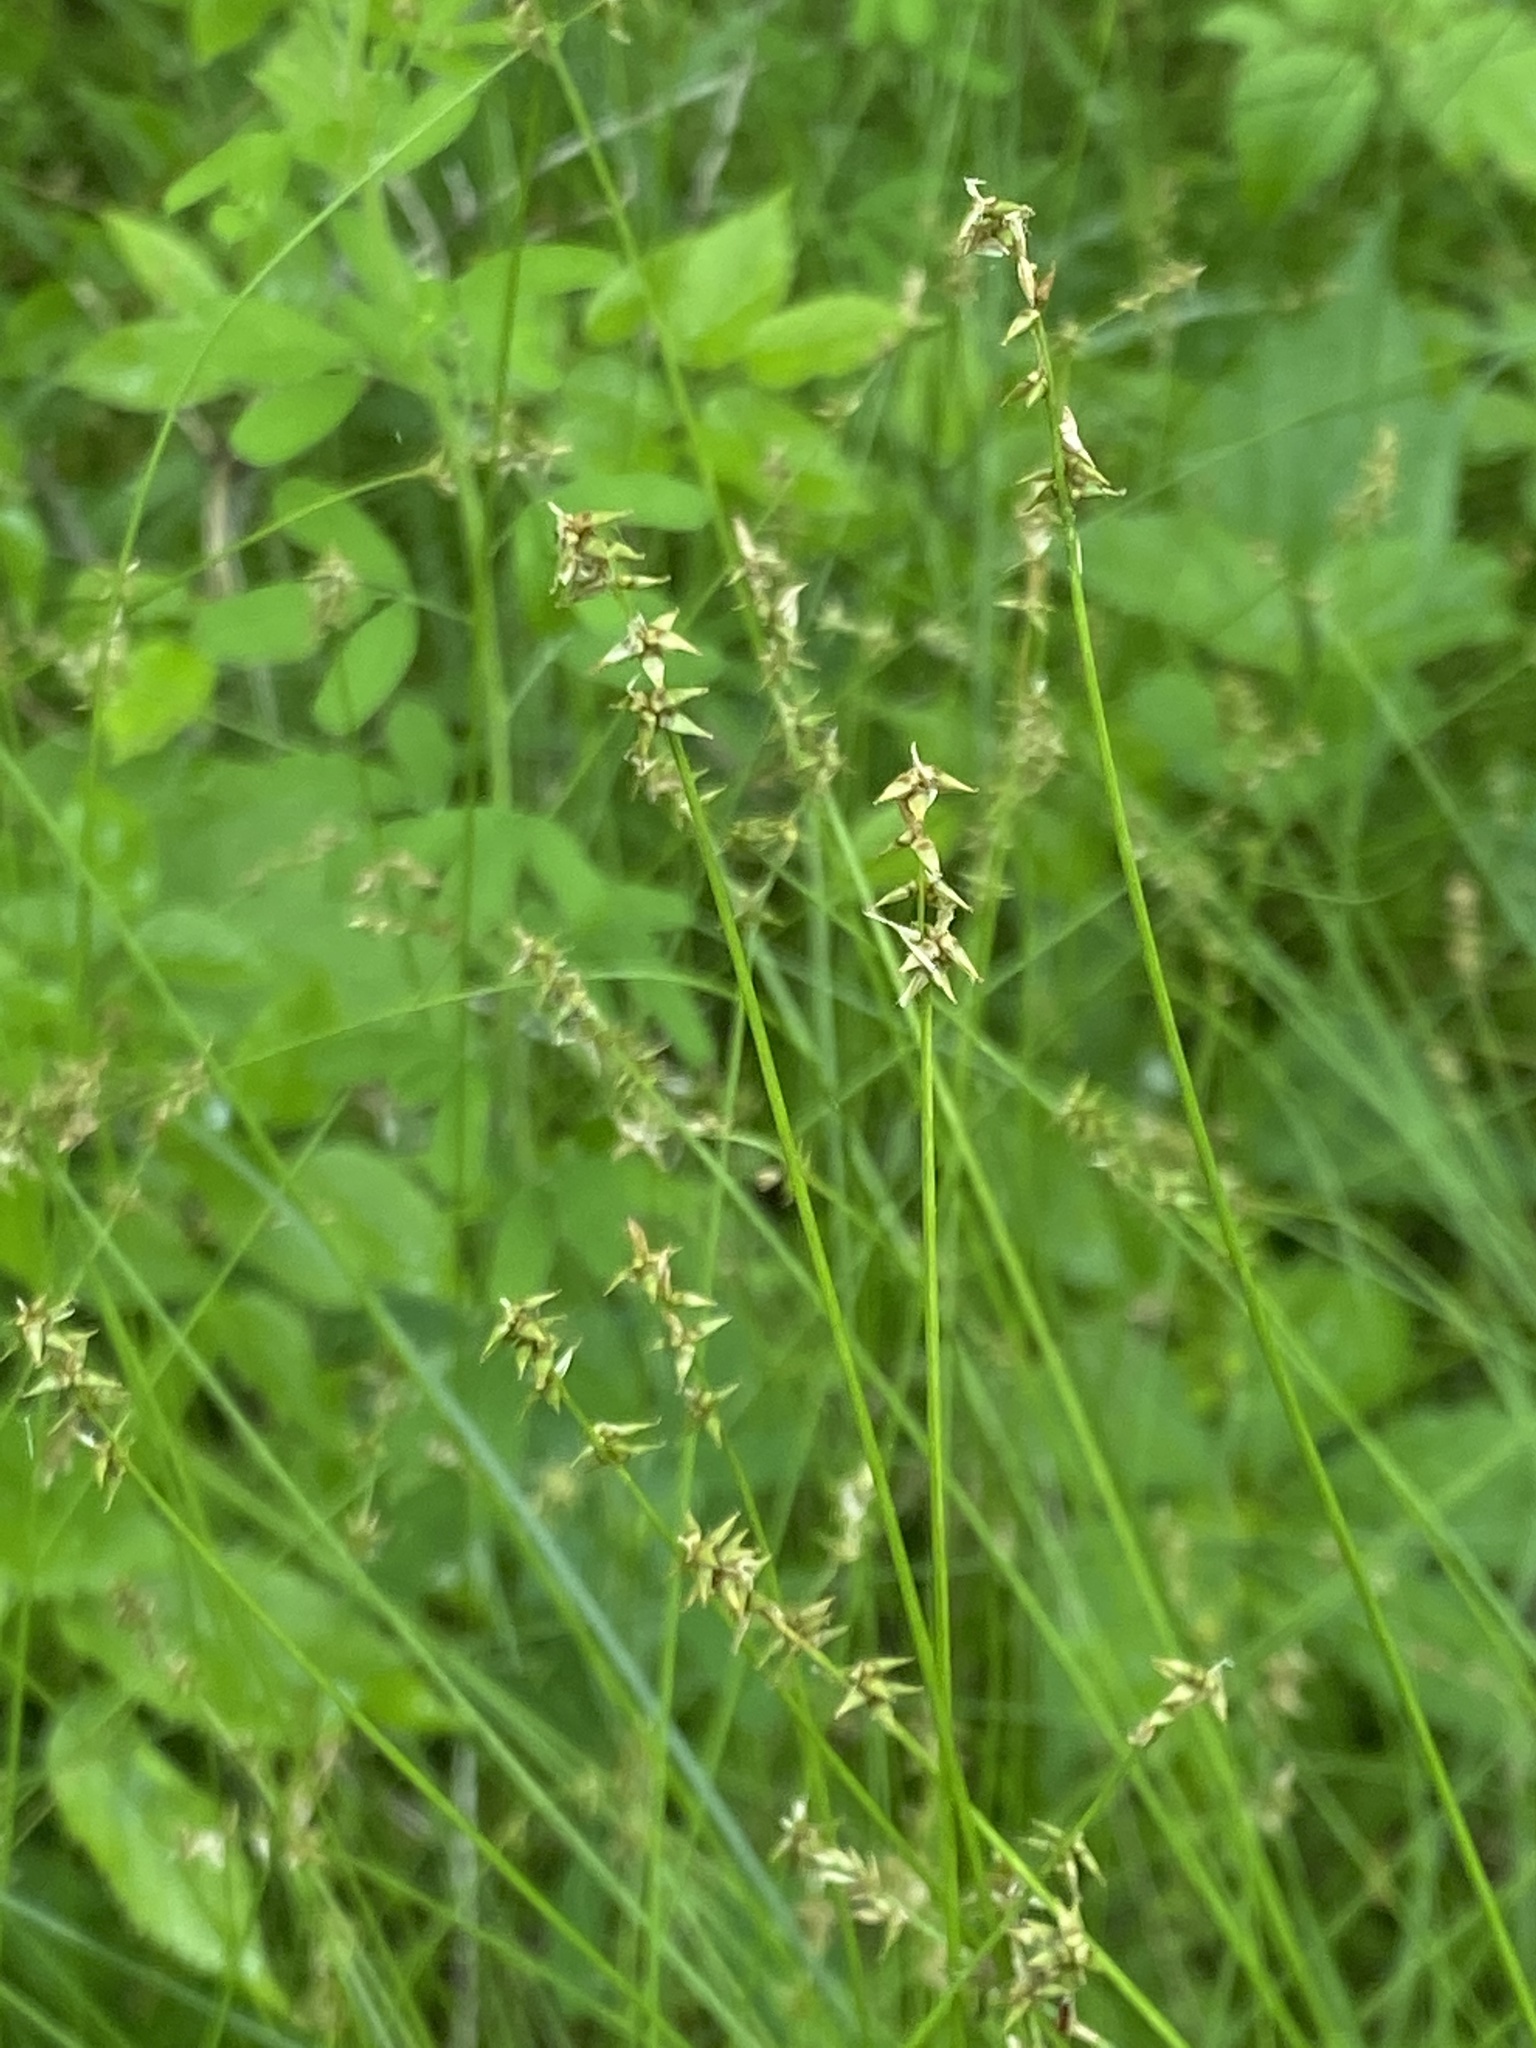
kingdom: Plantae
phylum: Tracheophyta
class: Liliopsida
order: Poales
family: Cyperaceae
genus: Carex
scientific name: Carex retroflexa
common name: Reflexed sedge
